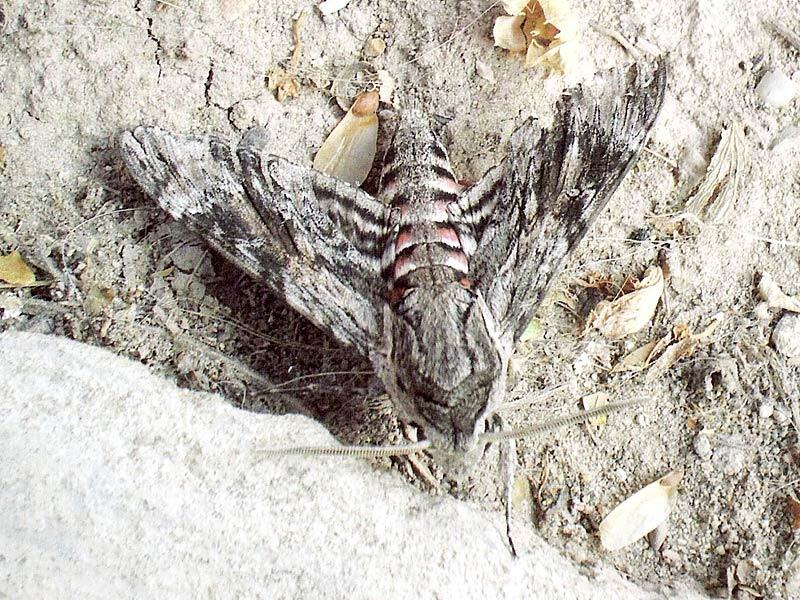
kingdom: Animalia
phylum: Arthropoda
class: Insecta
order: Lepidoptera
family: Sphingidae
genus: Agrius
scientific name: Agrius convolvuli
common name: Convolvulus hawkmoth
